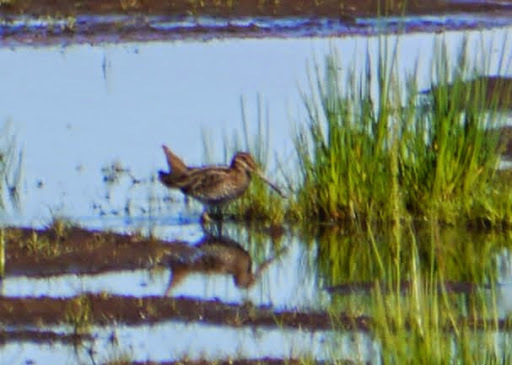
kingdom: Animalia
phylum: Chordata
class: Aves
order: Charadriiformes
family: Scolopacidae
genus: Gallinago
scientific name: Gallinago delicata
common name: Wilson's snipe
